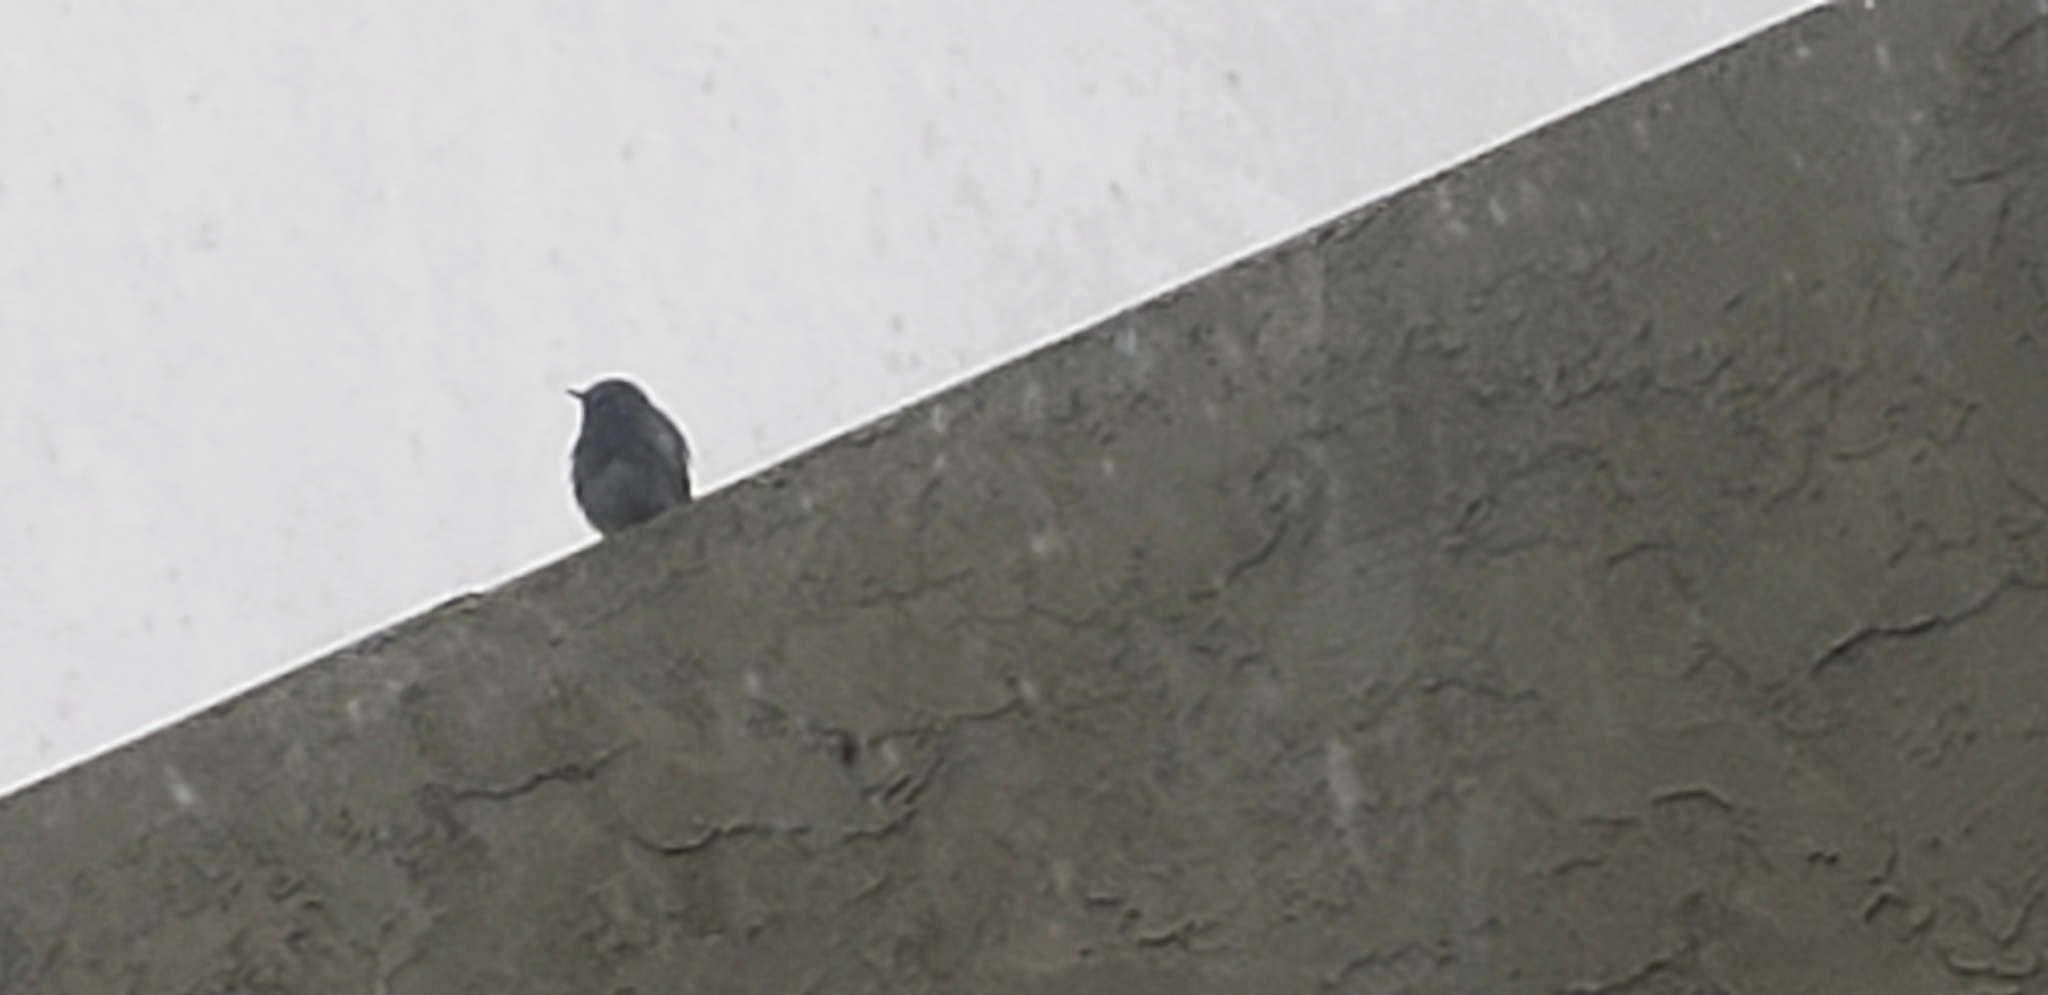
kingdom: Animalia
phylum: Chordata
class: Aves
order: Passeriformes
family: Tyrannidae
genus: Sayornis
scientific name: Sayornis nigricans
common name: Black phoebe
